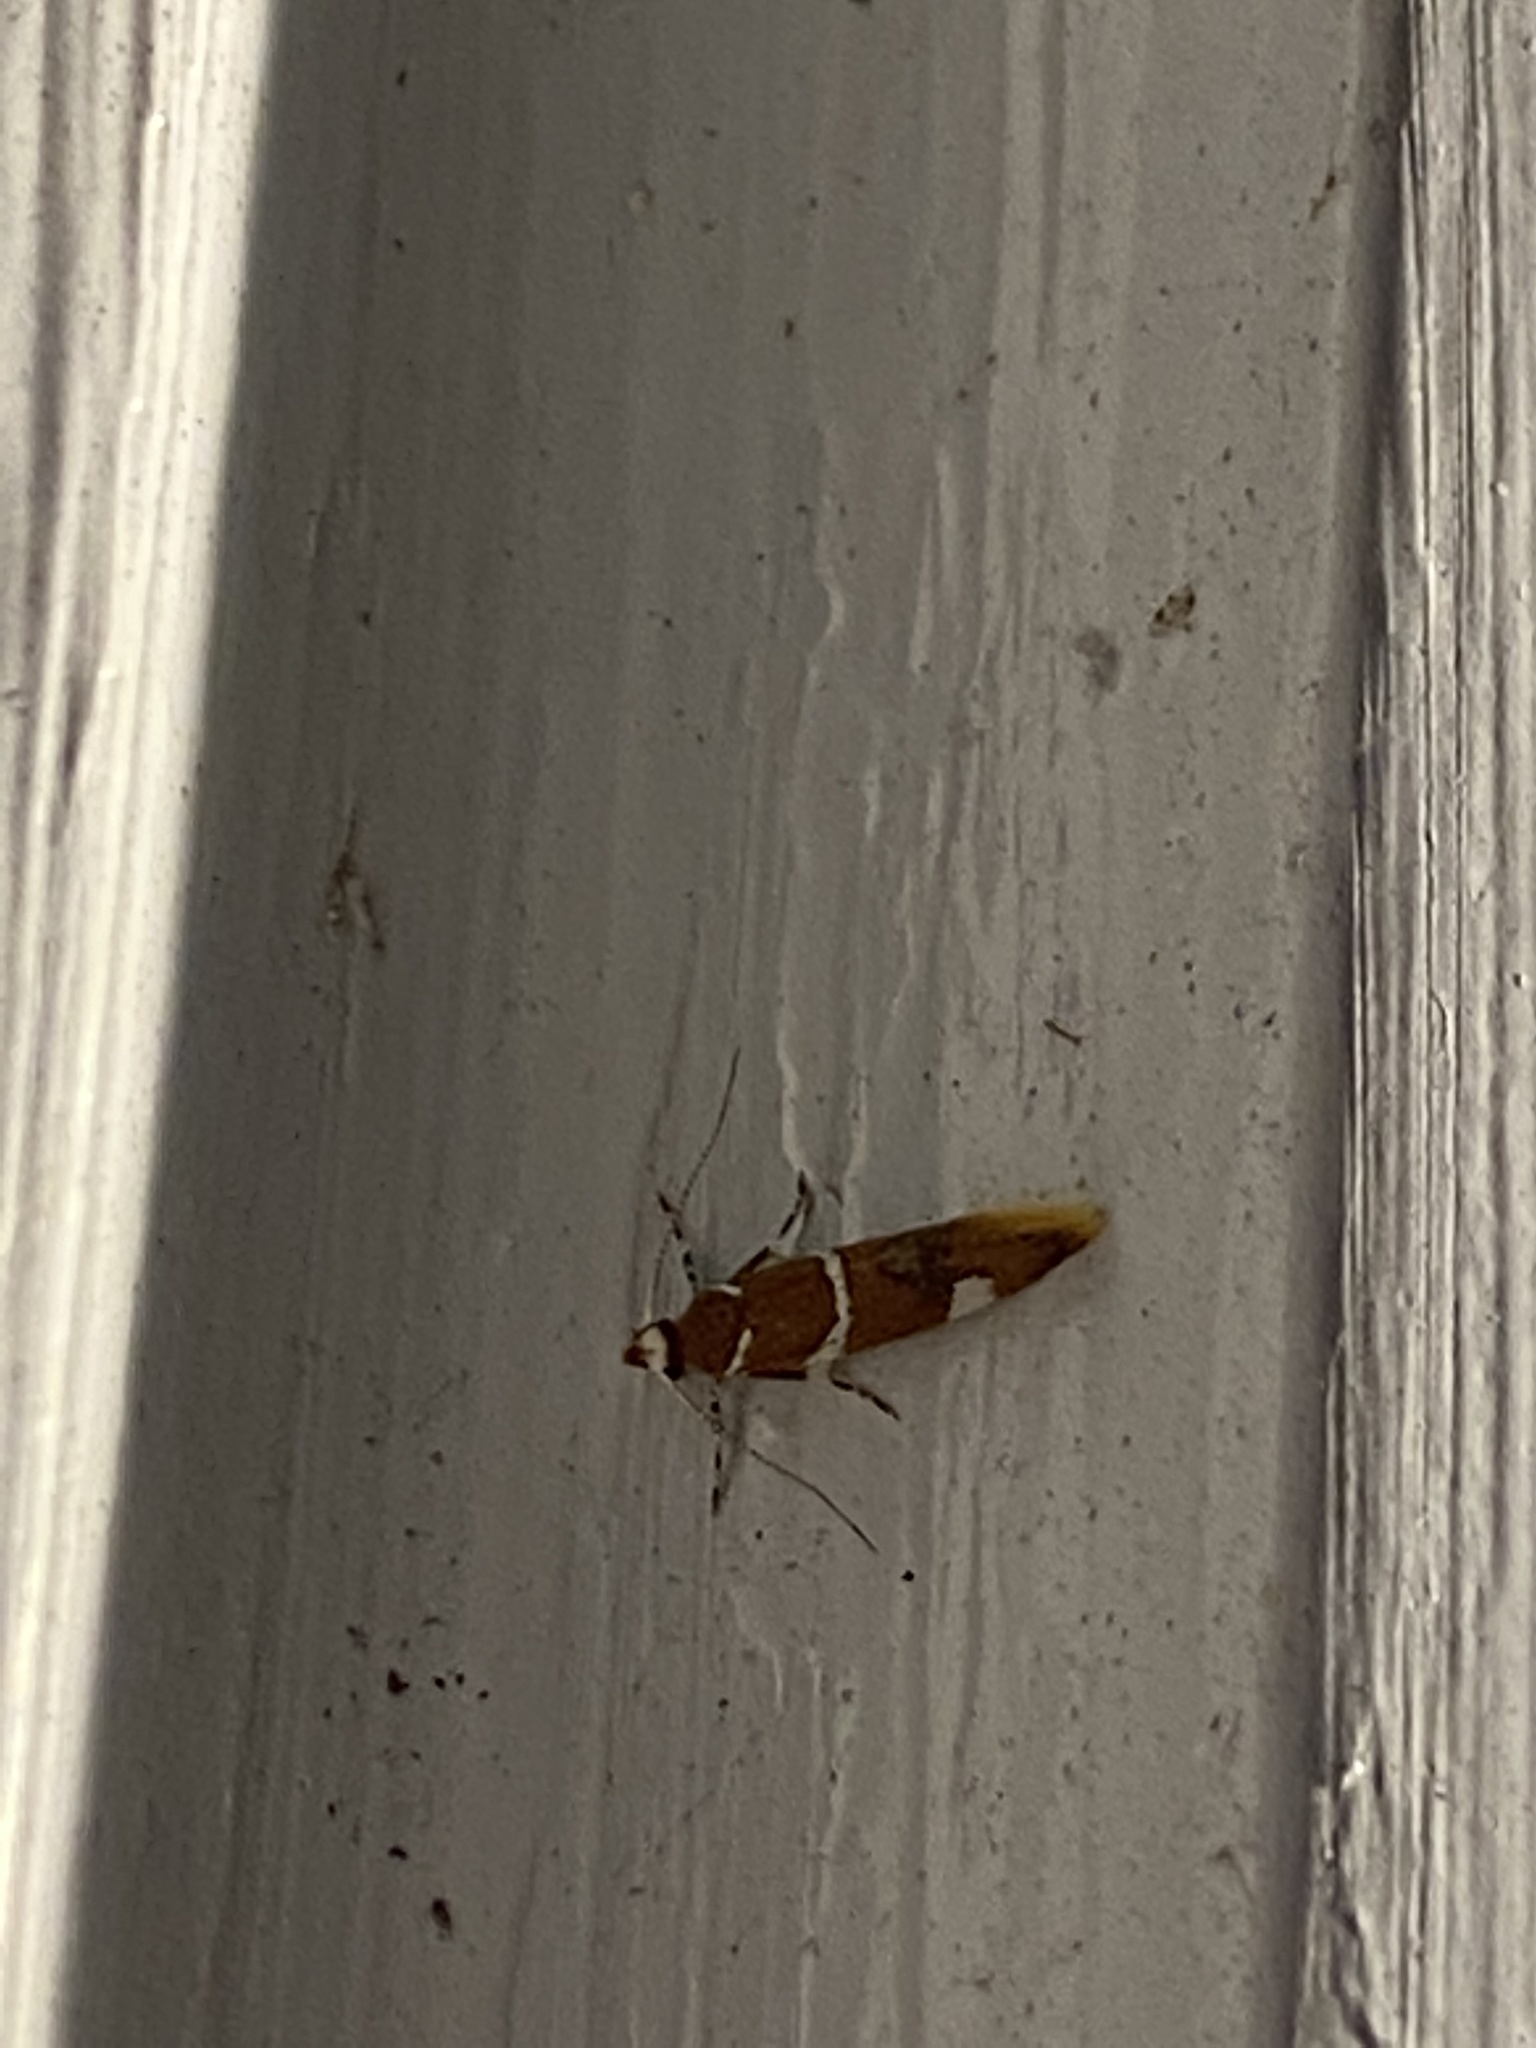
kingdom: Animalia
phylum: Arthropoda
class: Insecta
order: Lepidoptera
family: Oecophoridae
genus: Promalactis
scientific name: Promalactis suzukiella
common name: Moth
